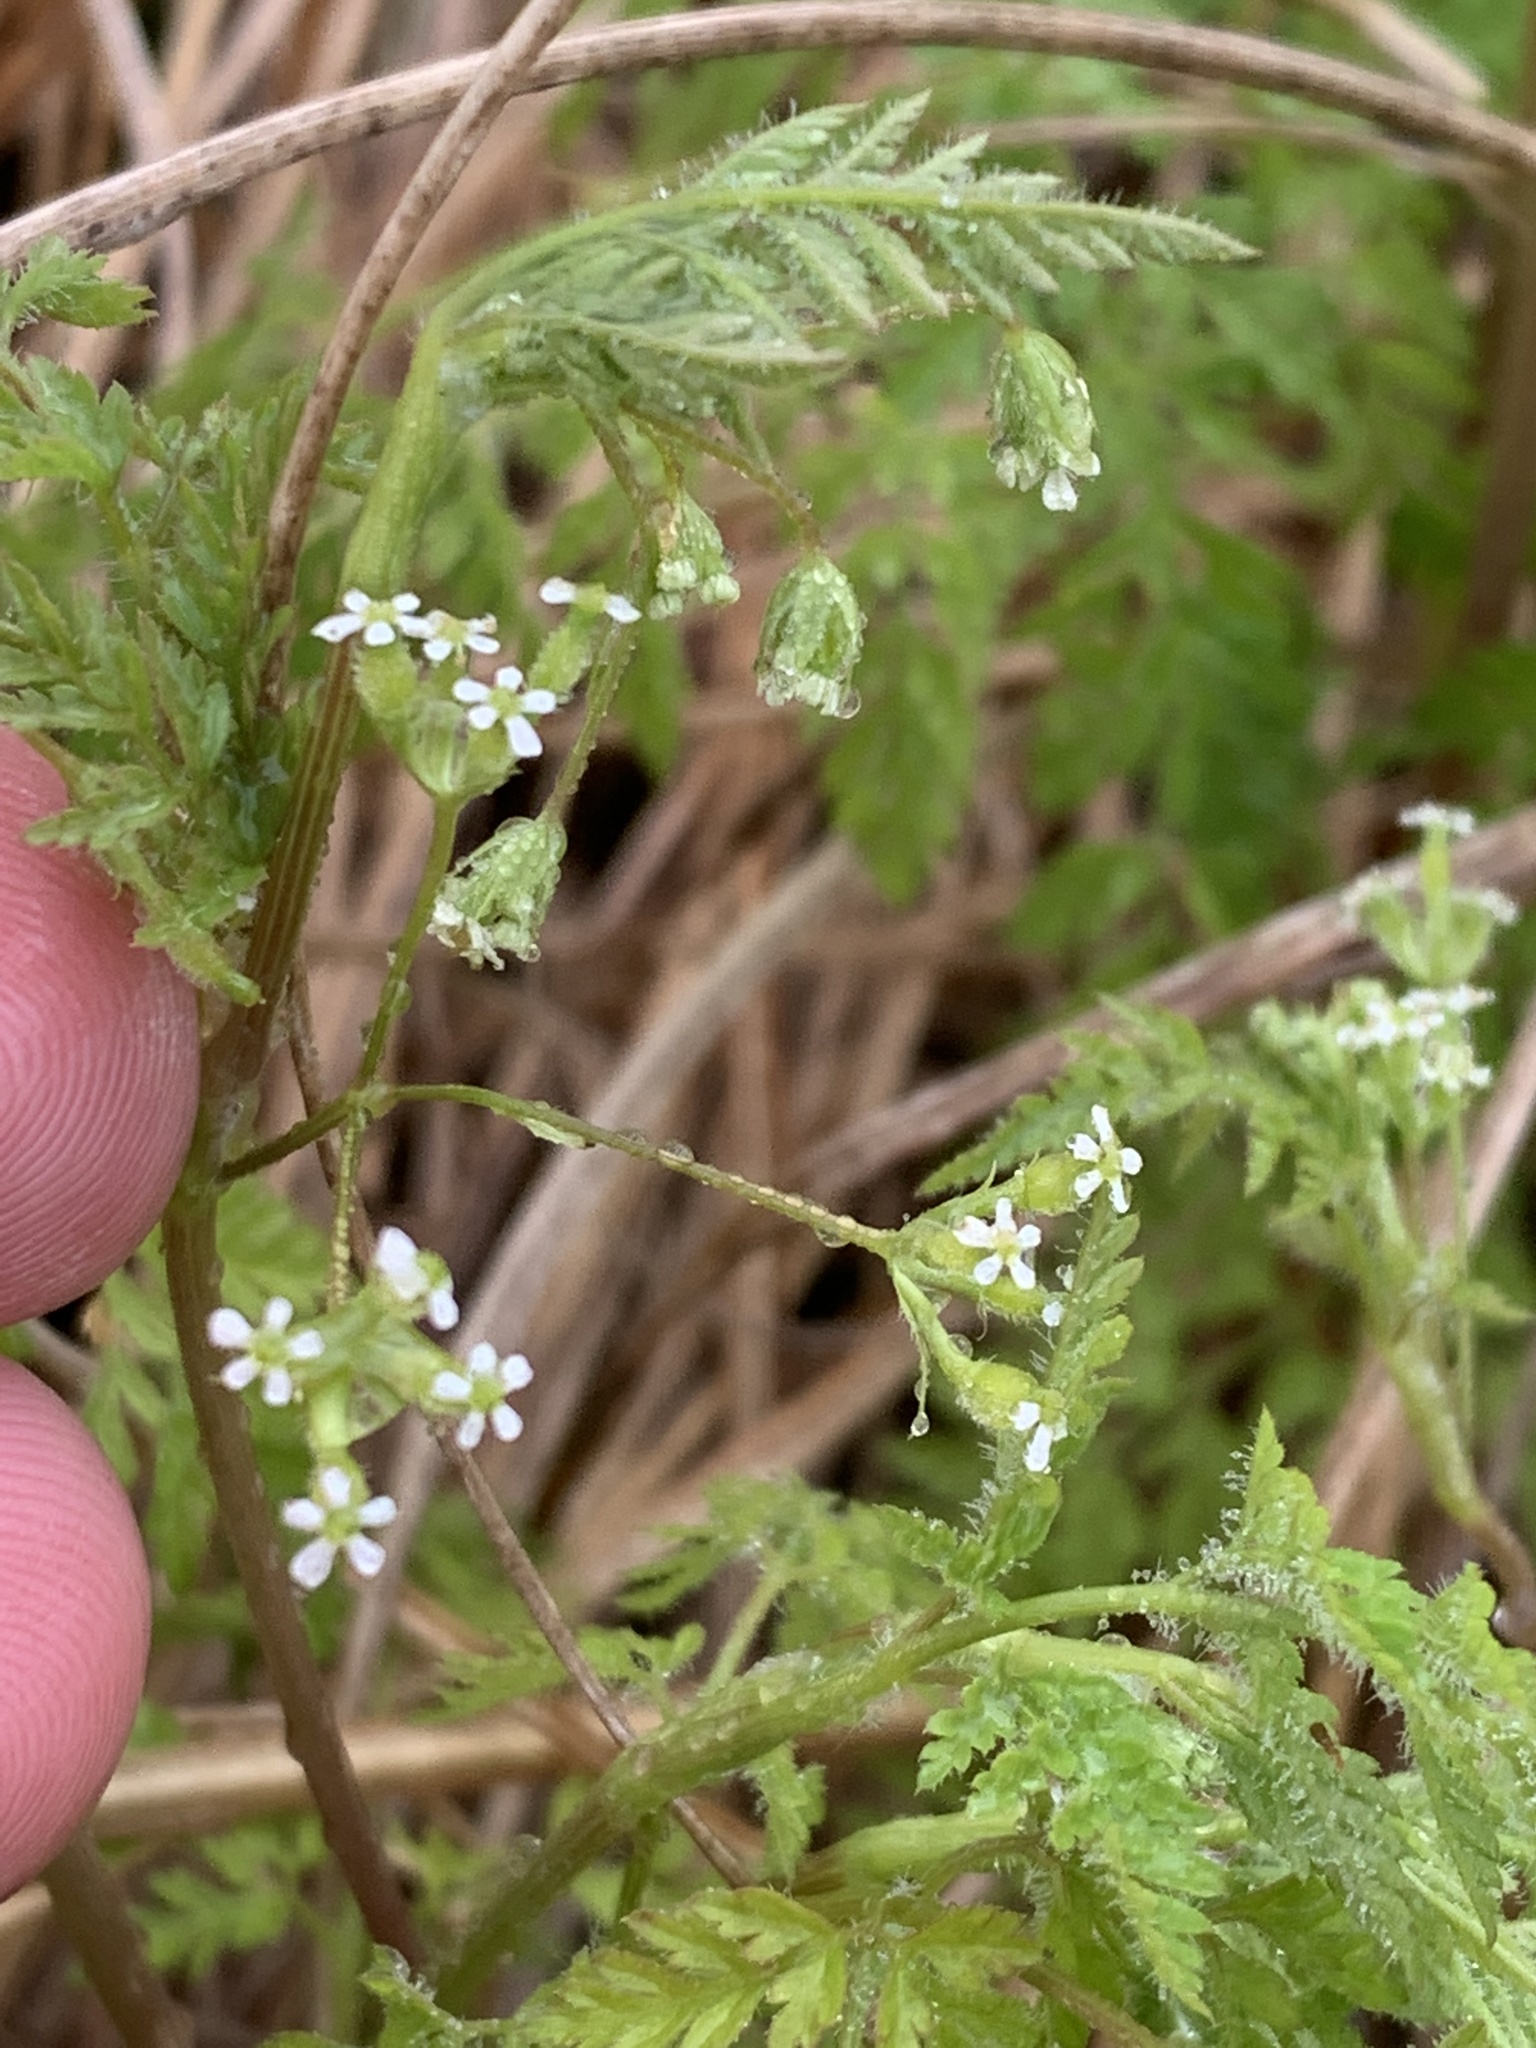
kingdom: Plantae
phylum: Tracheophyta
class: Magnoliopsida
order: Apiales
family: Apiaceae
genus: Anthriscus
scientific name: Anthriscus caucalis
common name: Bur chervil
